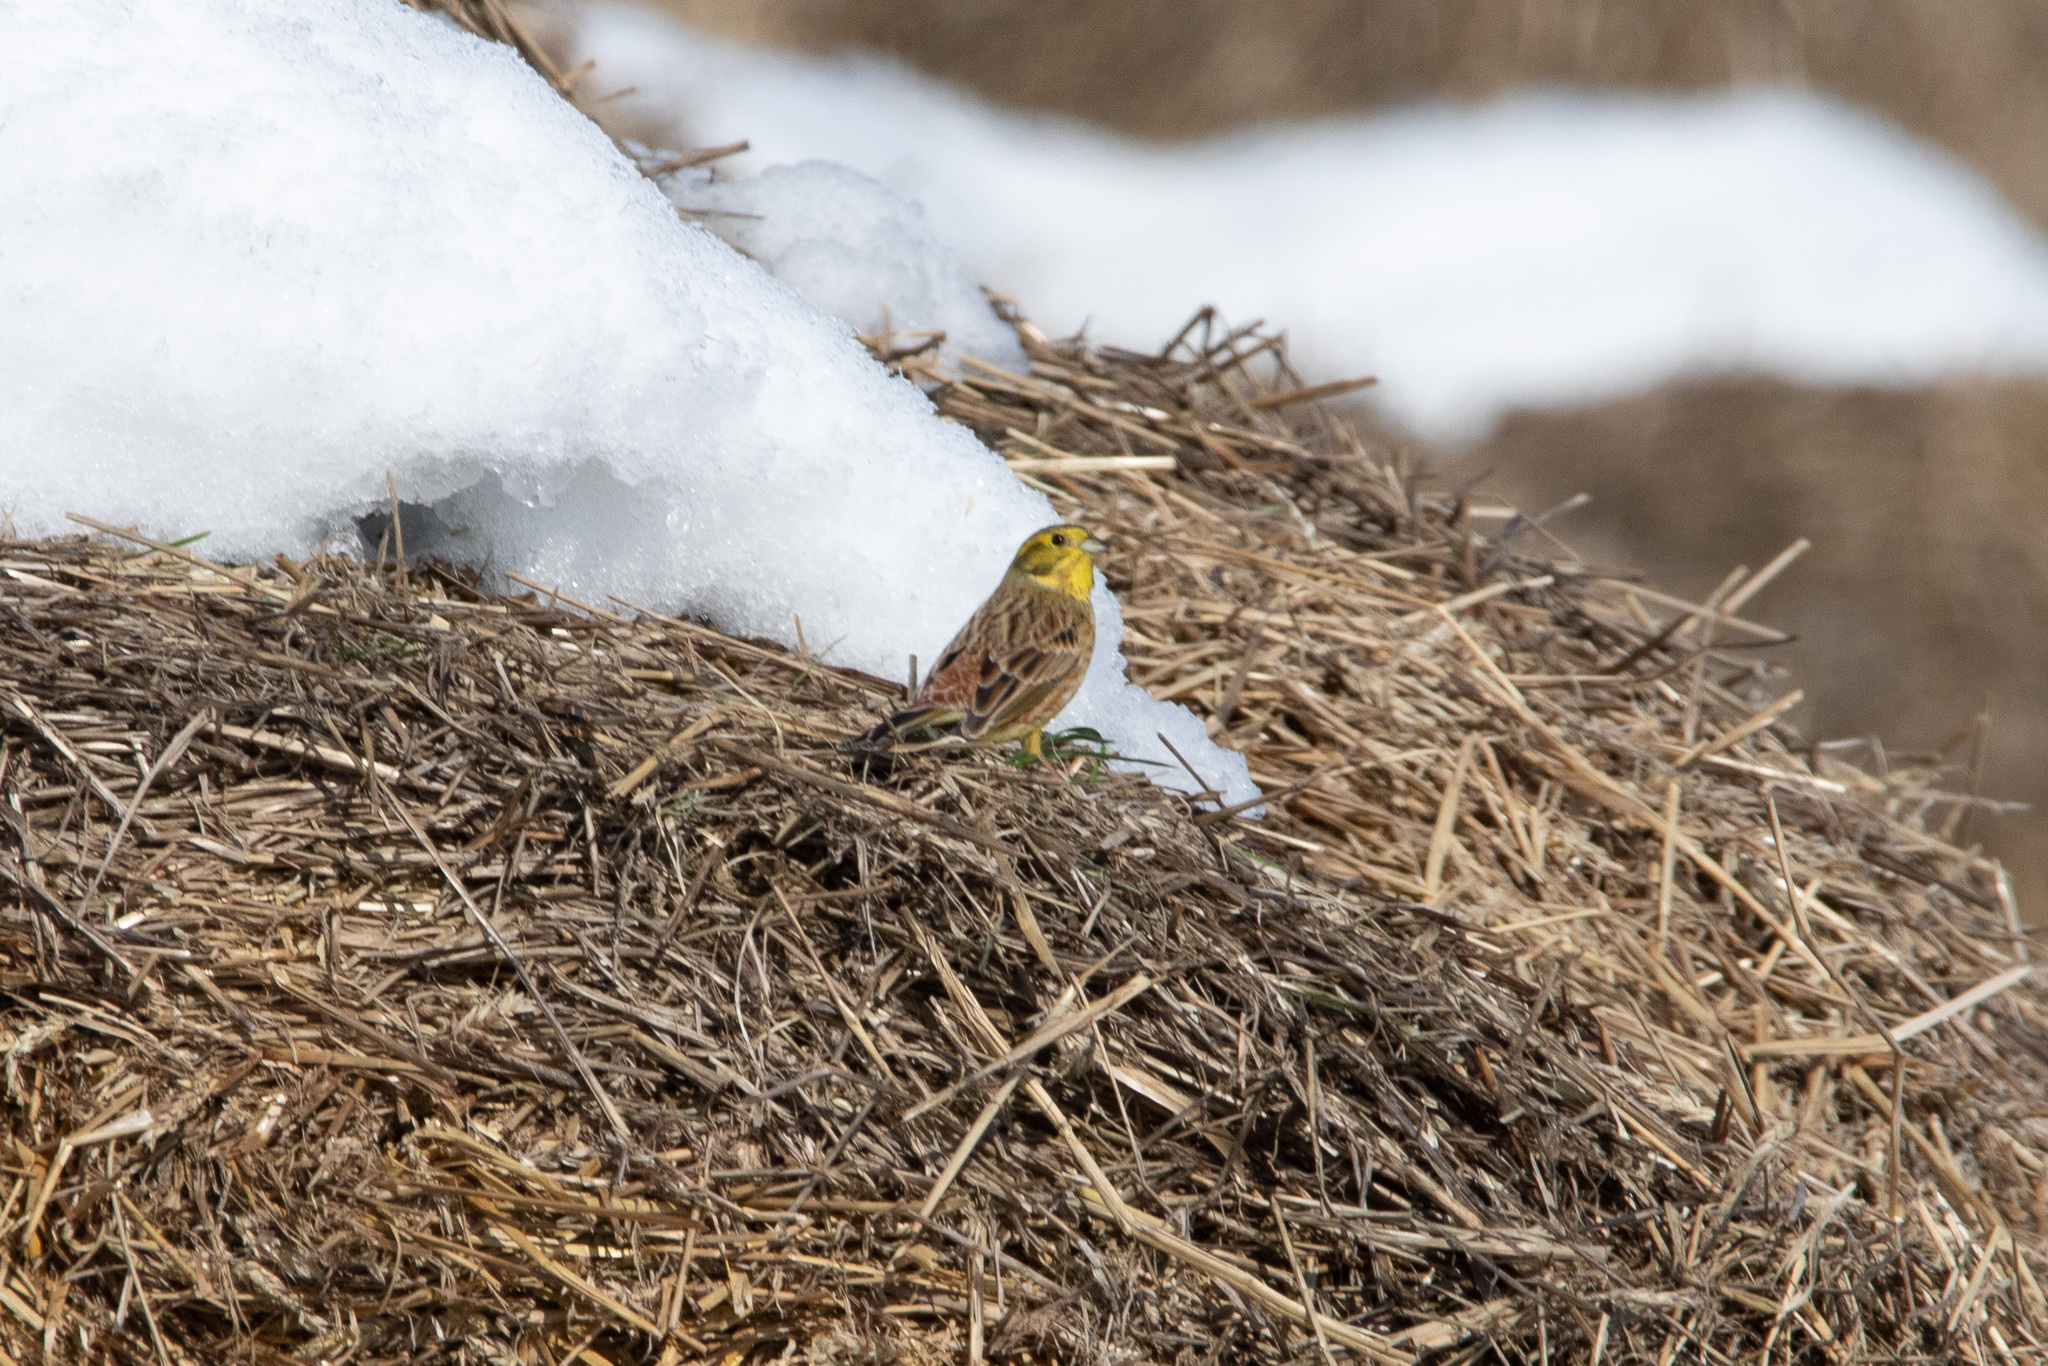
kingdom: Animalia
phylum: Chordata
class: Aves
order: Passeriformes
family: Emberizidae
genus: Emberiza
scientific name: Emberiza citrinella
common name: Yellowhammer
